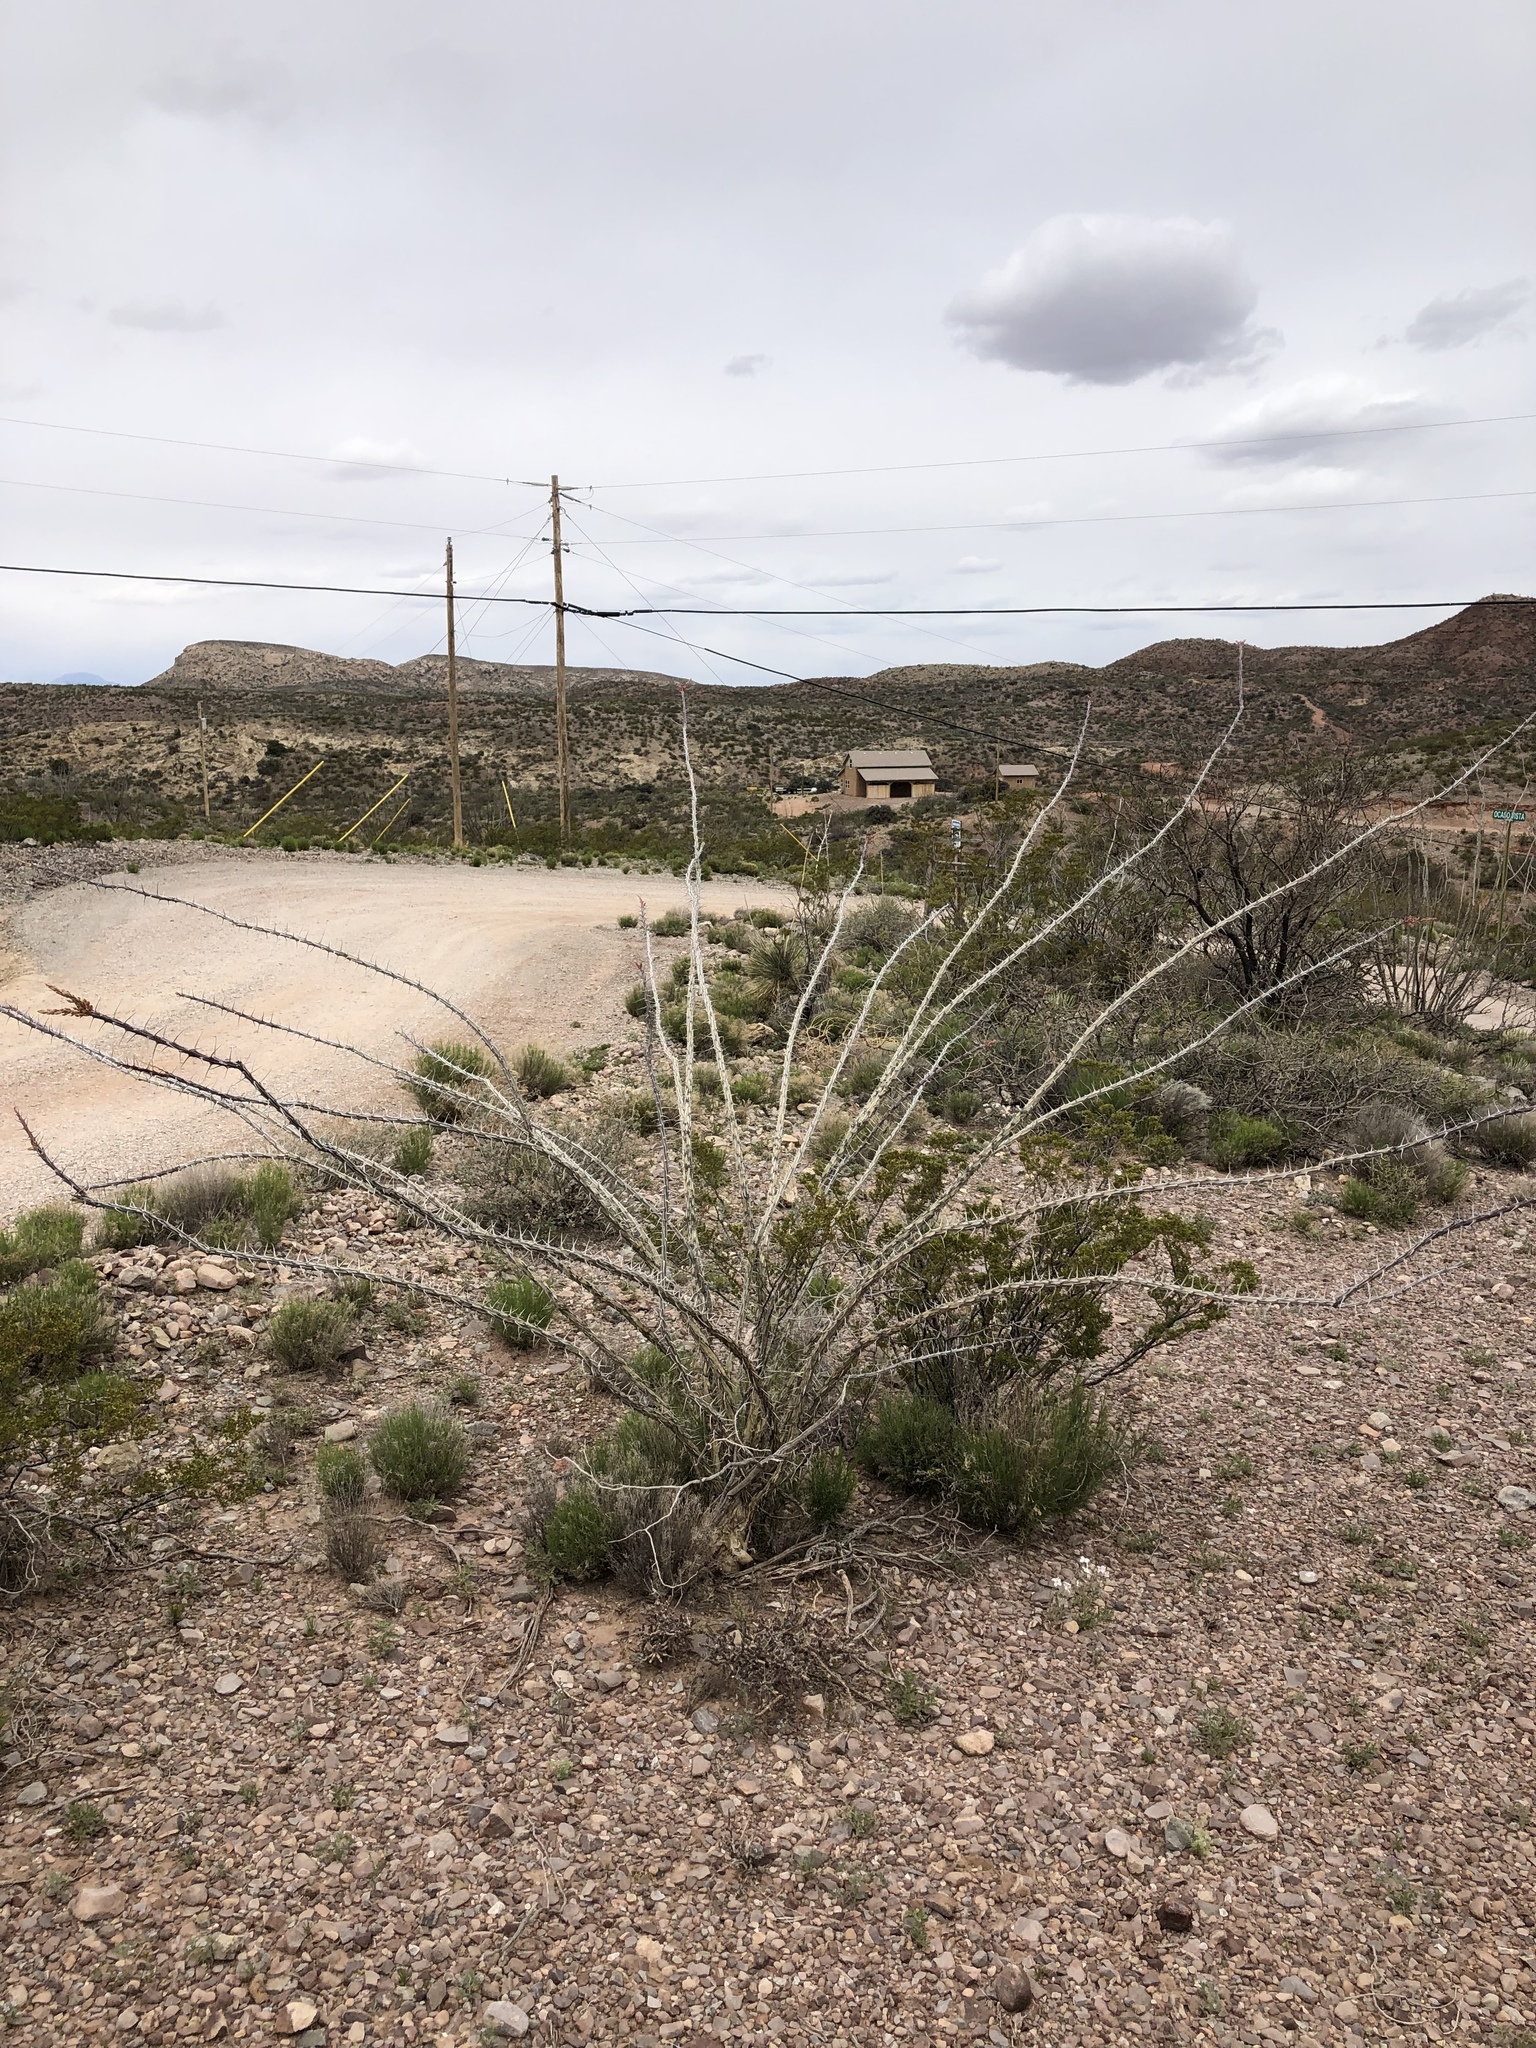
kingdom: Plantae
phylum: Tracheophyta
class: Magnoliopsida
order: Ericales
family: Fouquieriaceae
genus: Fouquieria
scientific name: Fouquieria splendens
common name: Vine-cactus
